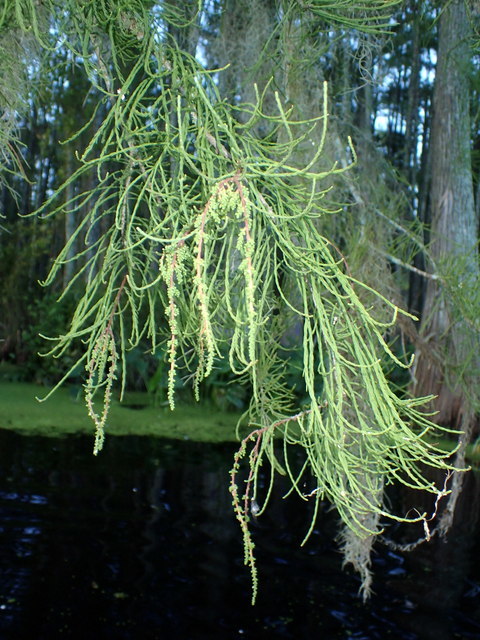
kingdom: Plantae
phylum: Tracheophyta
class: Pinopsida
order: Pinales
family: Cupressaceae
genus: Taxodium
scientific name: Taxodium distichum
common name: Bald cypress
